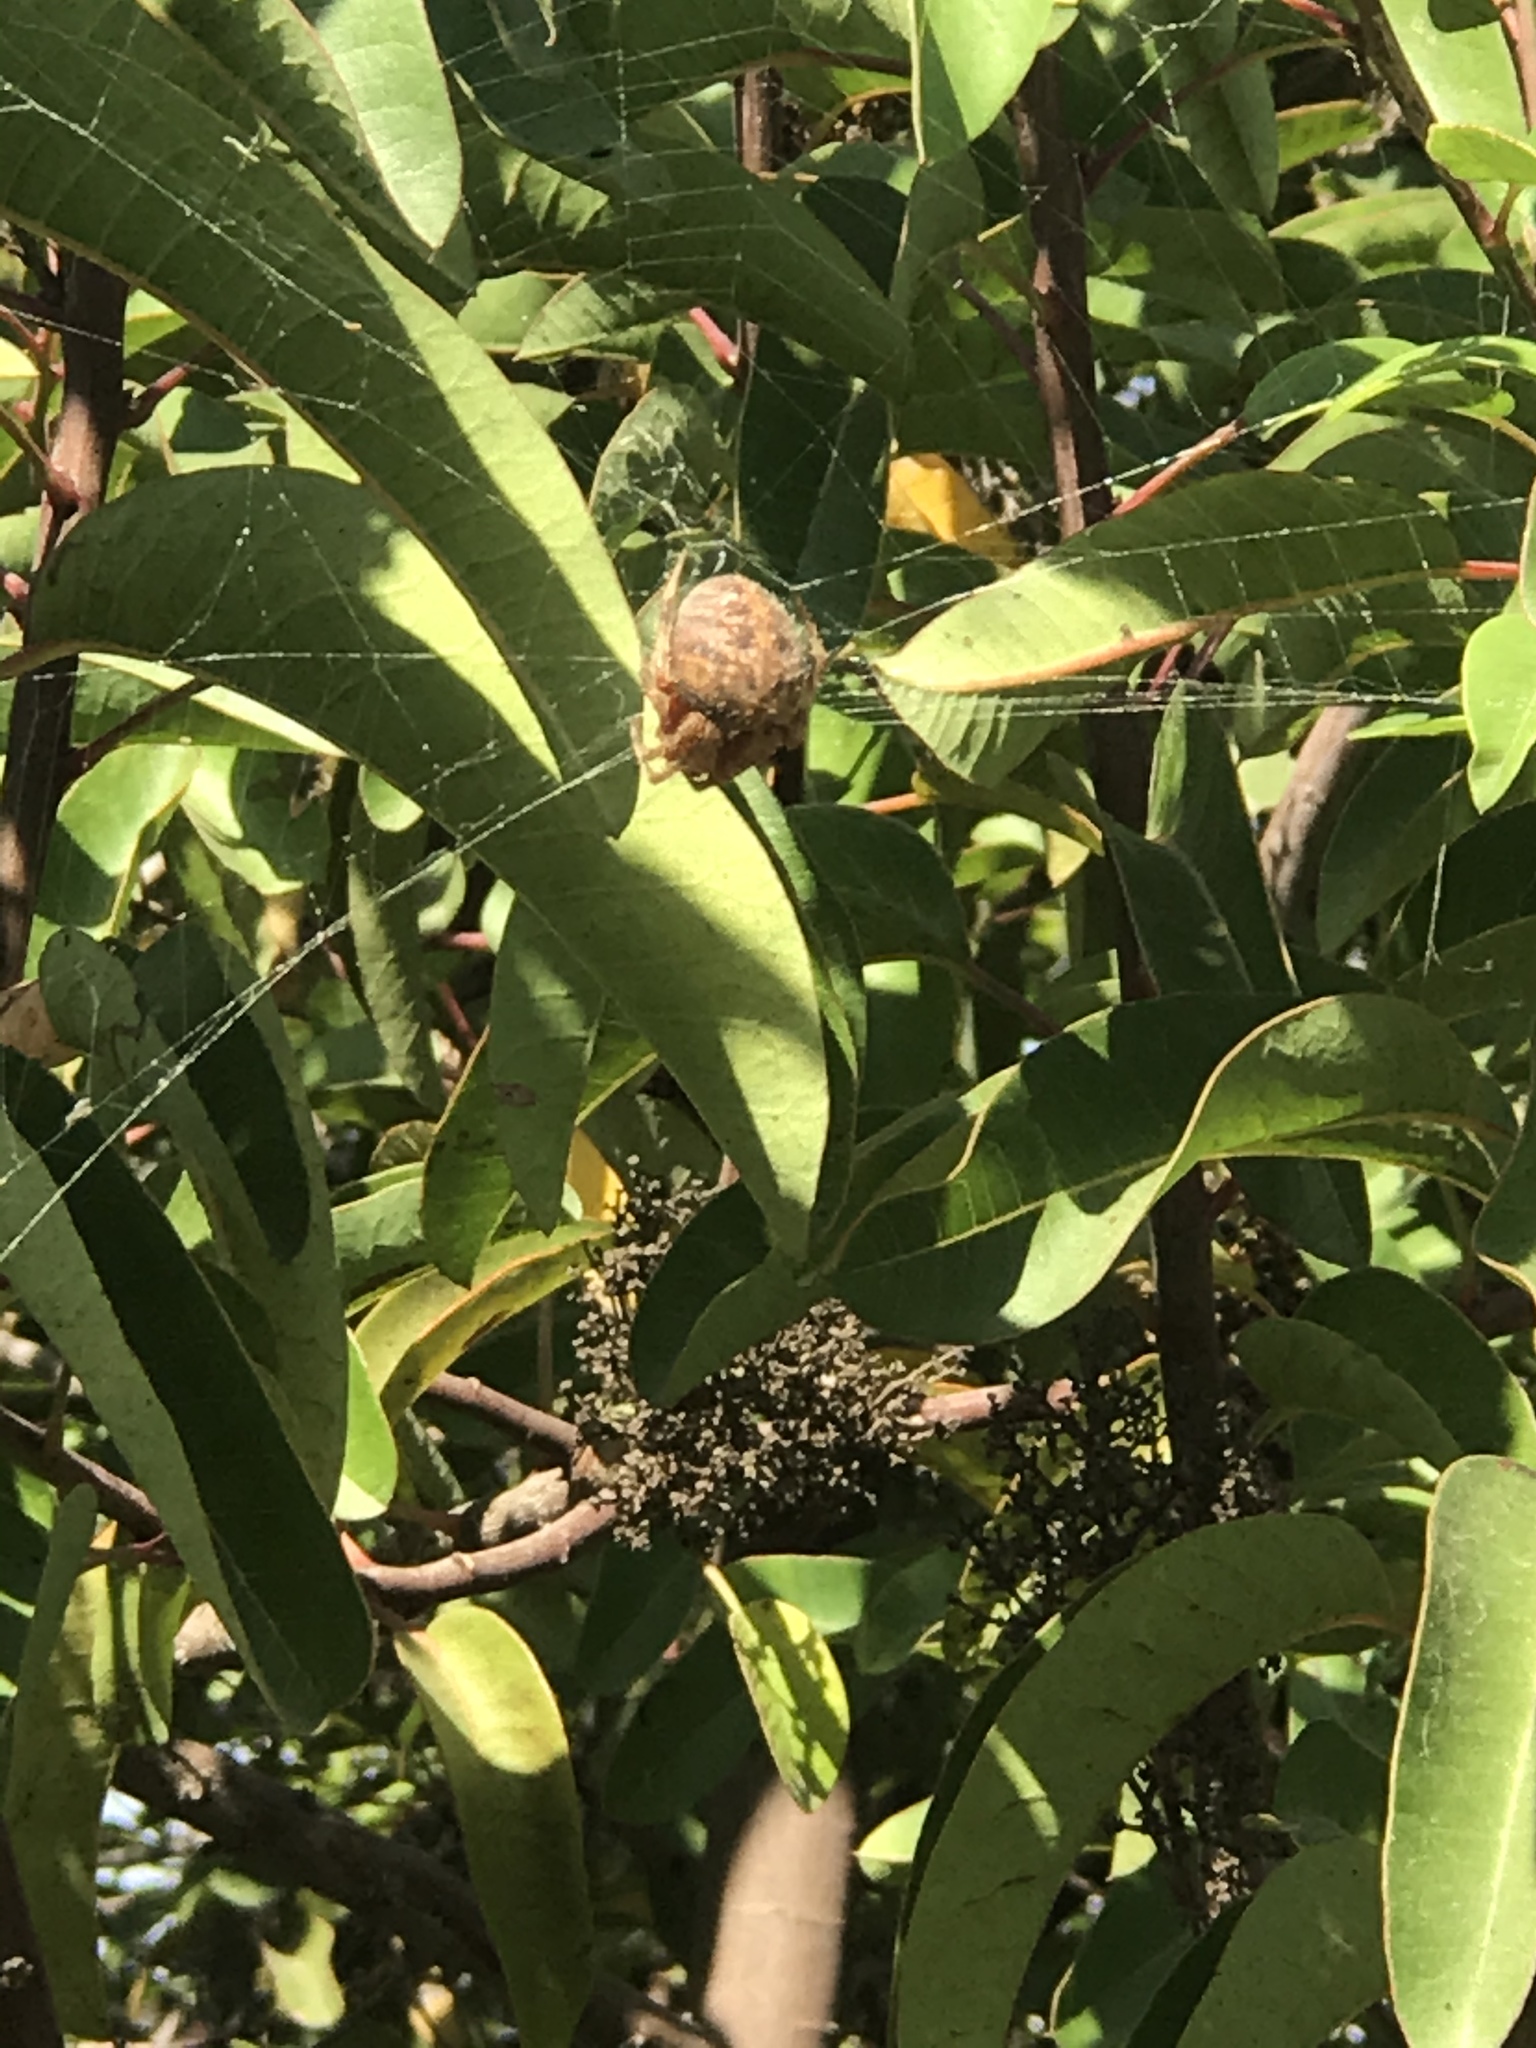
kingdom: Animalia
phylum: Arthropoda
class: Arachnida
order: Araneae
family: Araneidae
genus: Neoscona
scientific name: Neoscona crucifera
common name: Spotted orbweaver
